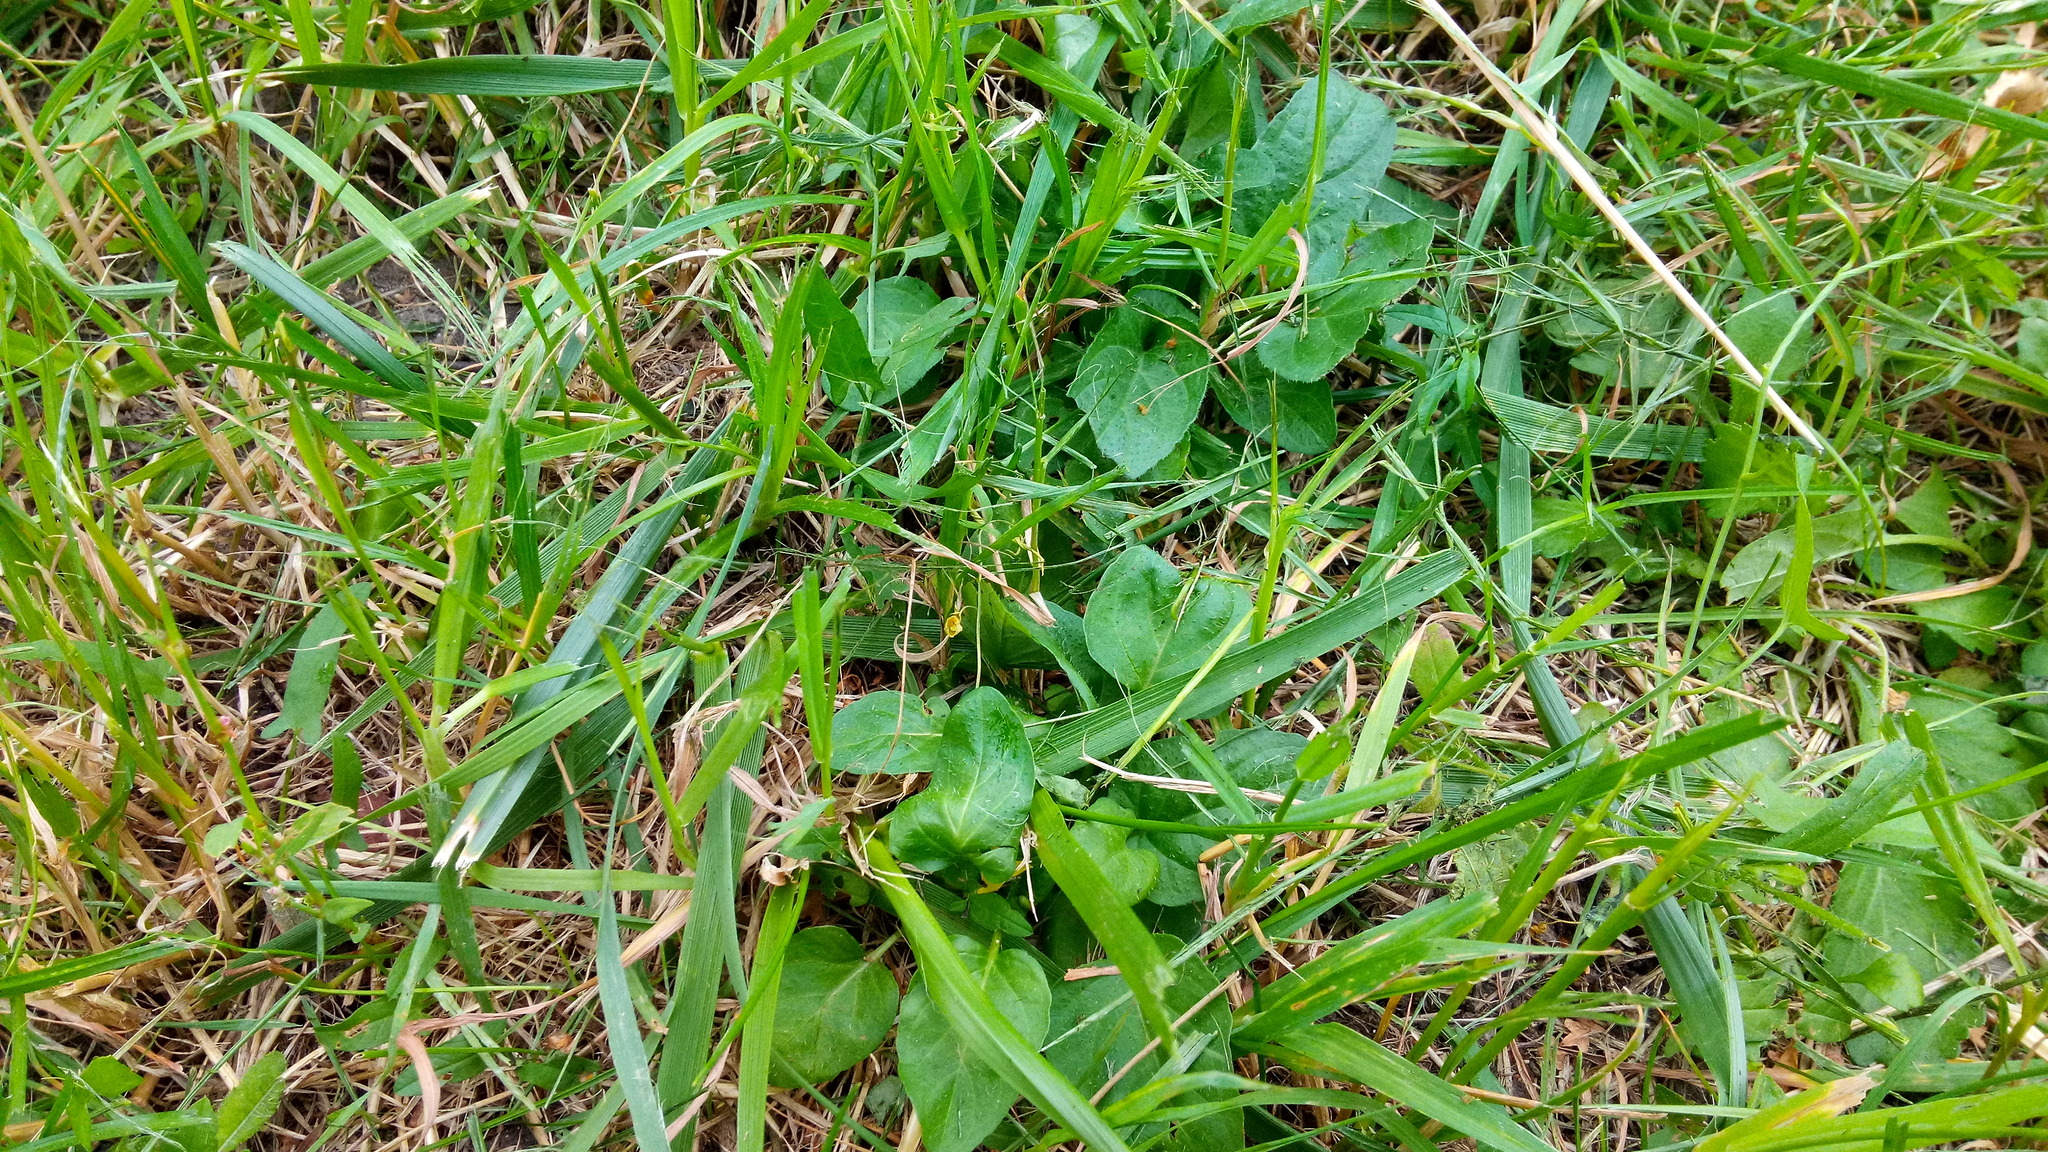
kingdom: Plantae
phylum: Tracheophyta
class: Magnoliopsida
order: Lamiales
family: Lamiaceae
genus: Prunella
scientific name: Prunella vulgaris
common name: Heal-all
